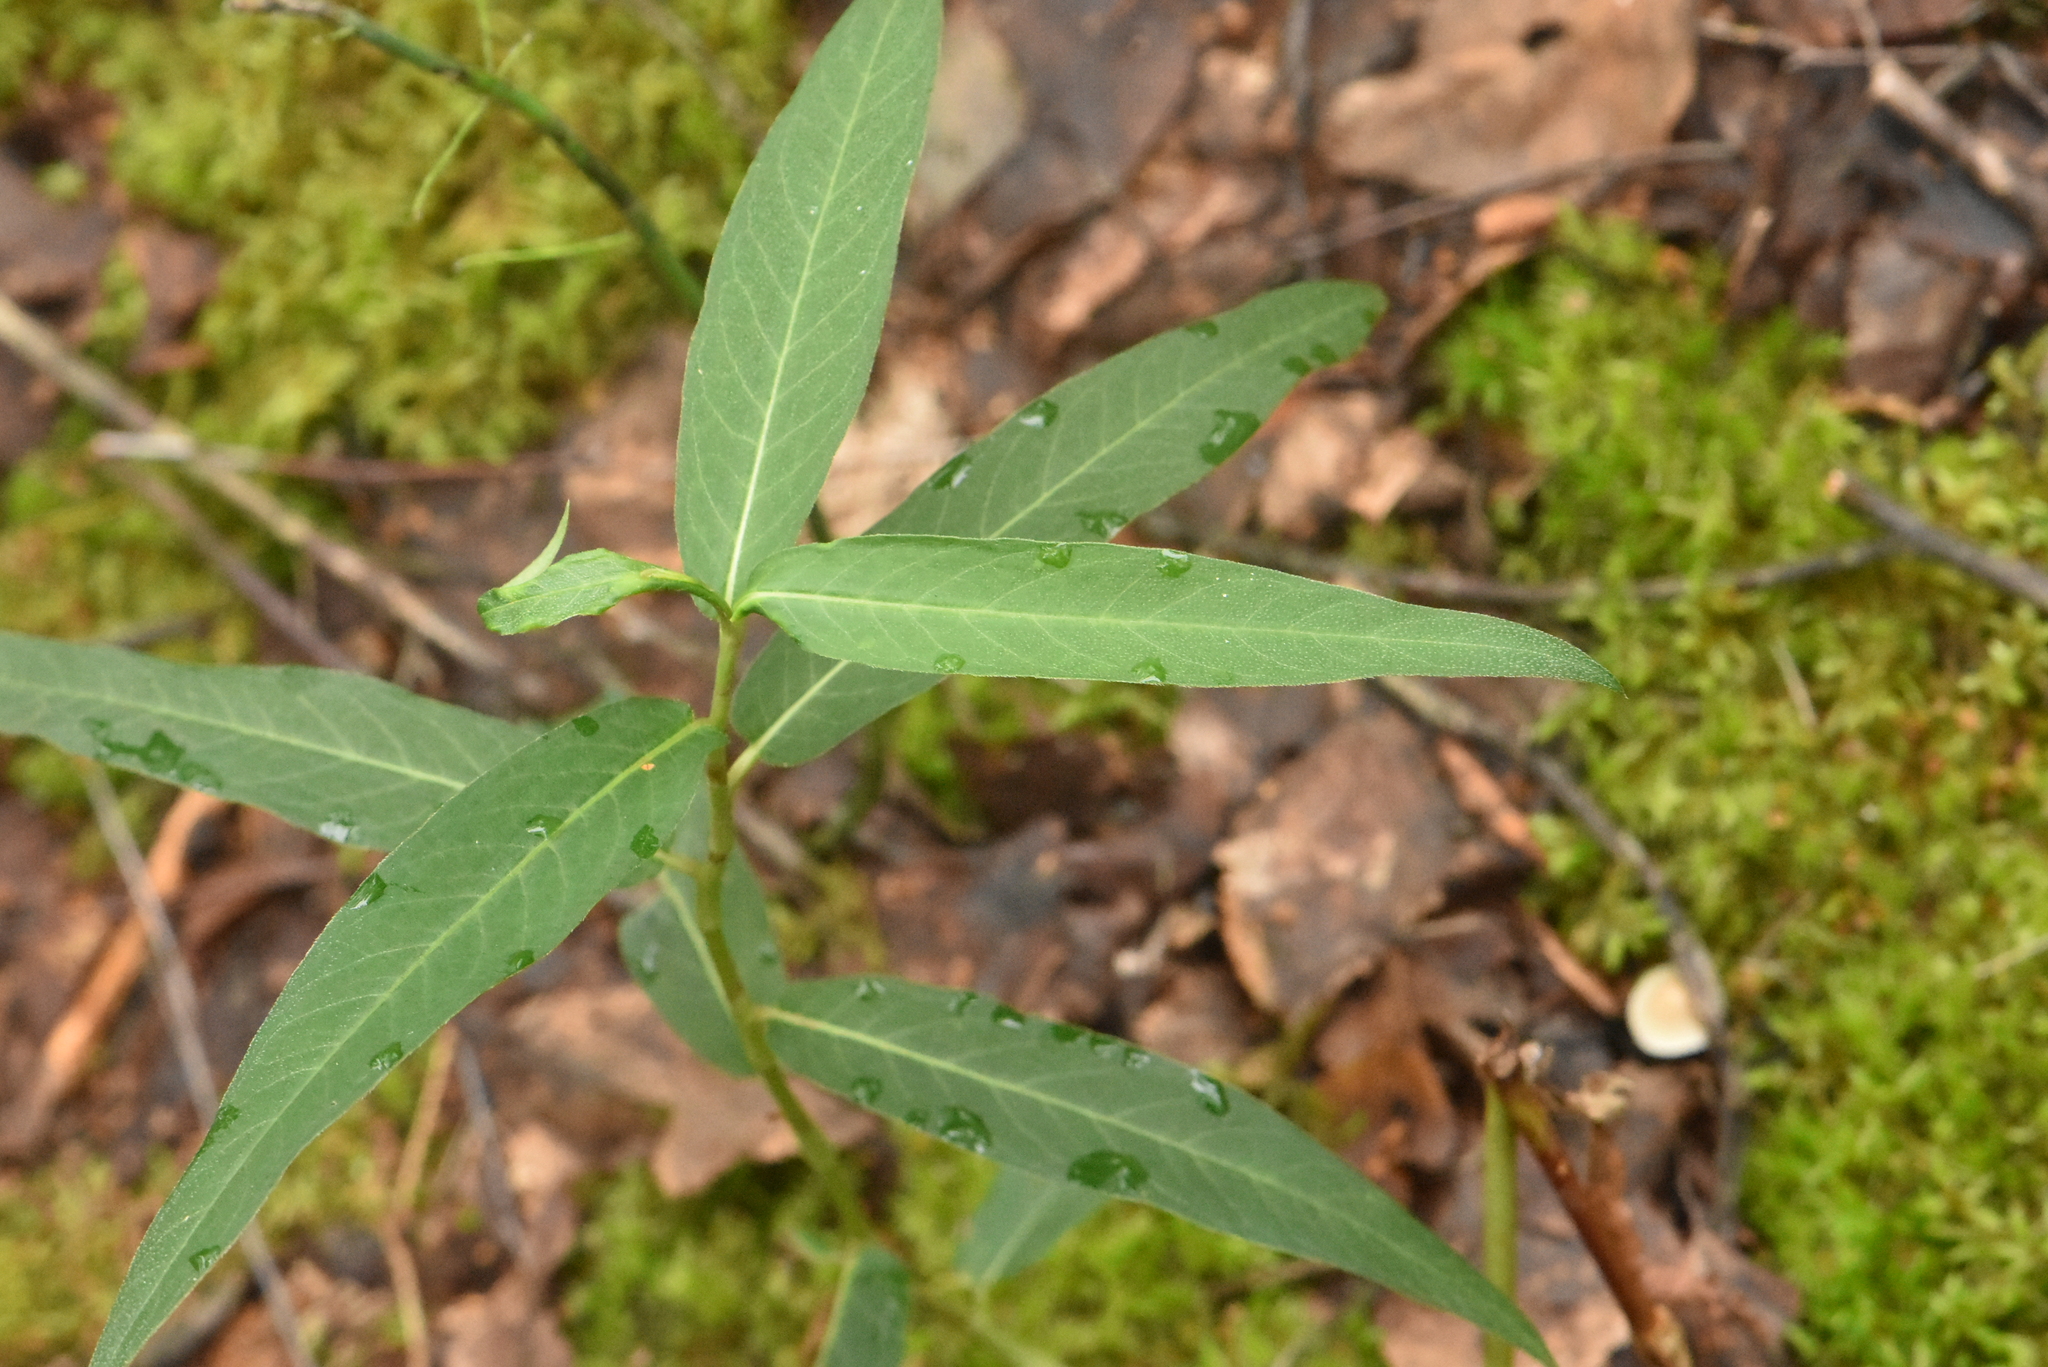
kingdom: Plantae
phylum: Tracheophyta
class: Magnoliopsida
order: Caryophyllales
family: Polygonaceae
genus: Persicaria
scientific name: Persicaria amphibia
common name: Amphibious bistort
